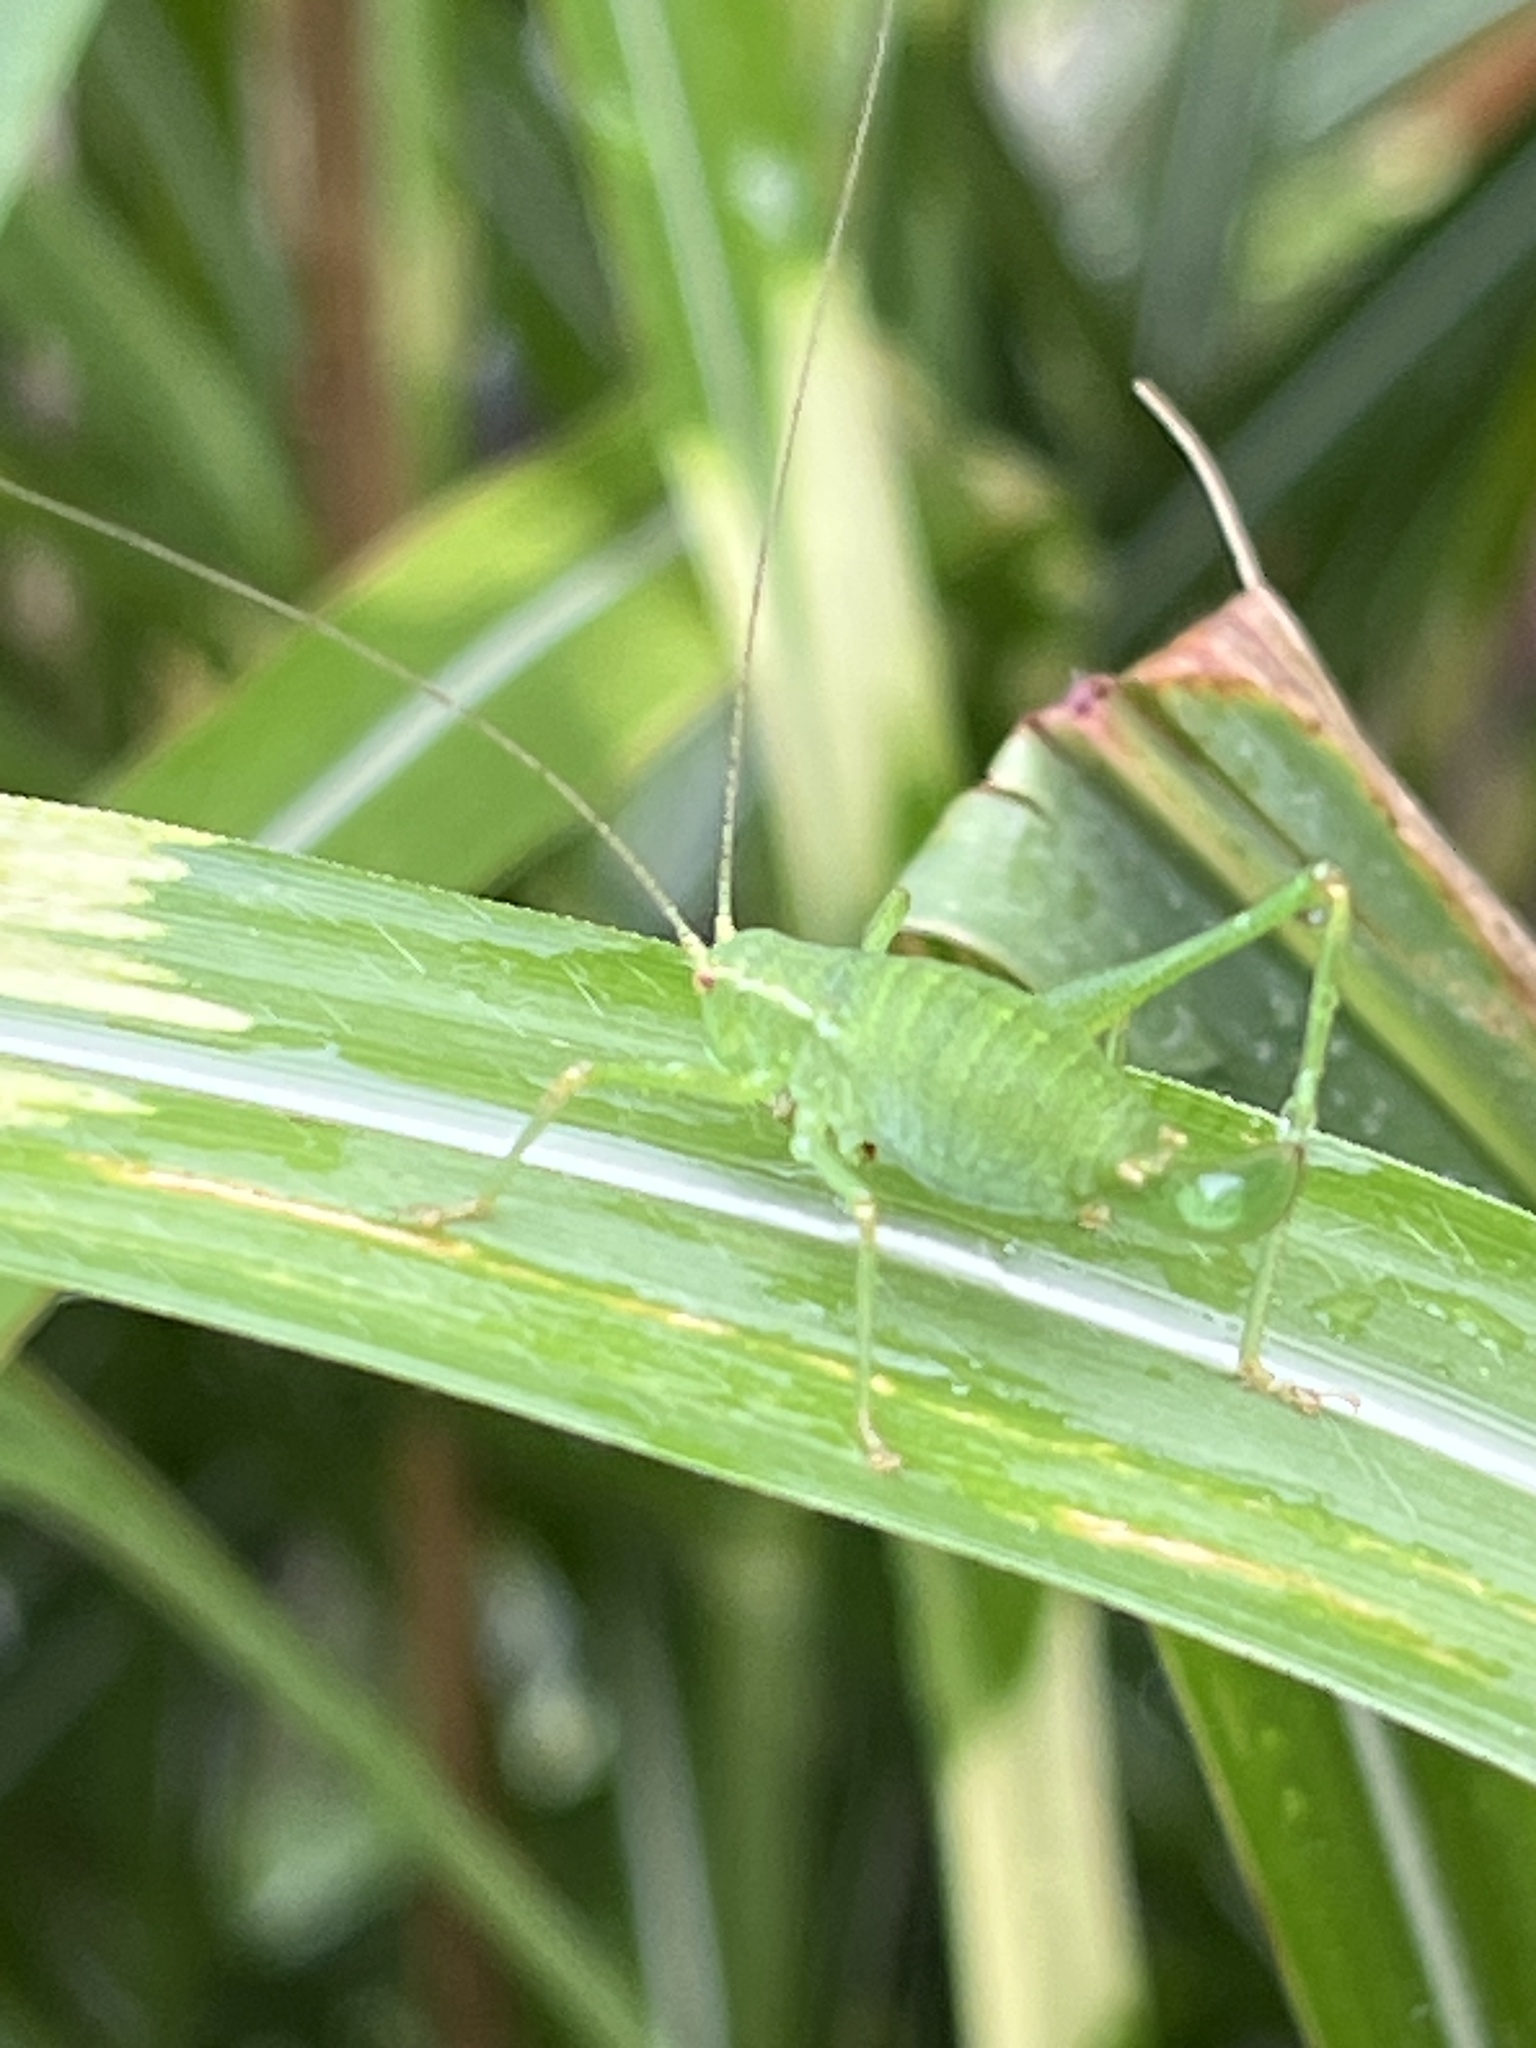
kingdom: Animalia
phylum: Arthropoda
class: Insecta
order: Orthoptera
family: Tettigoniidae
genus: Leptophyes
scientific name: Leptophyes punctatissima
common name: Speckled bush-cricket
